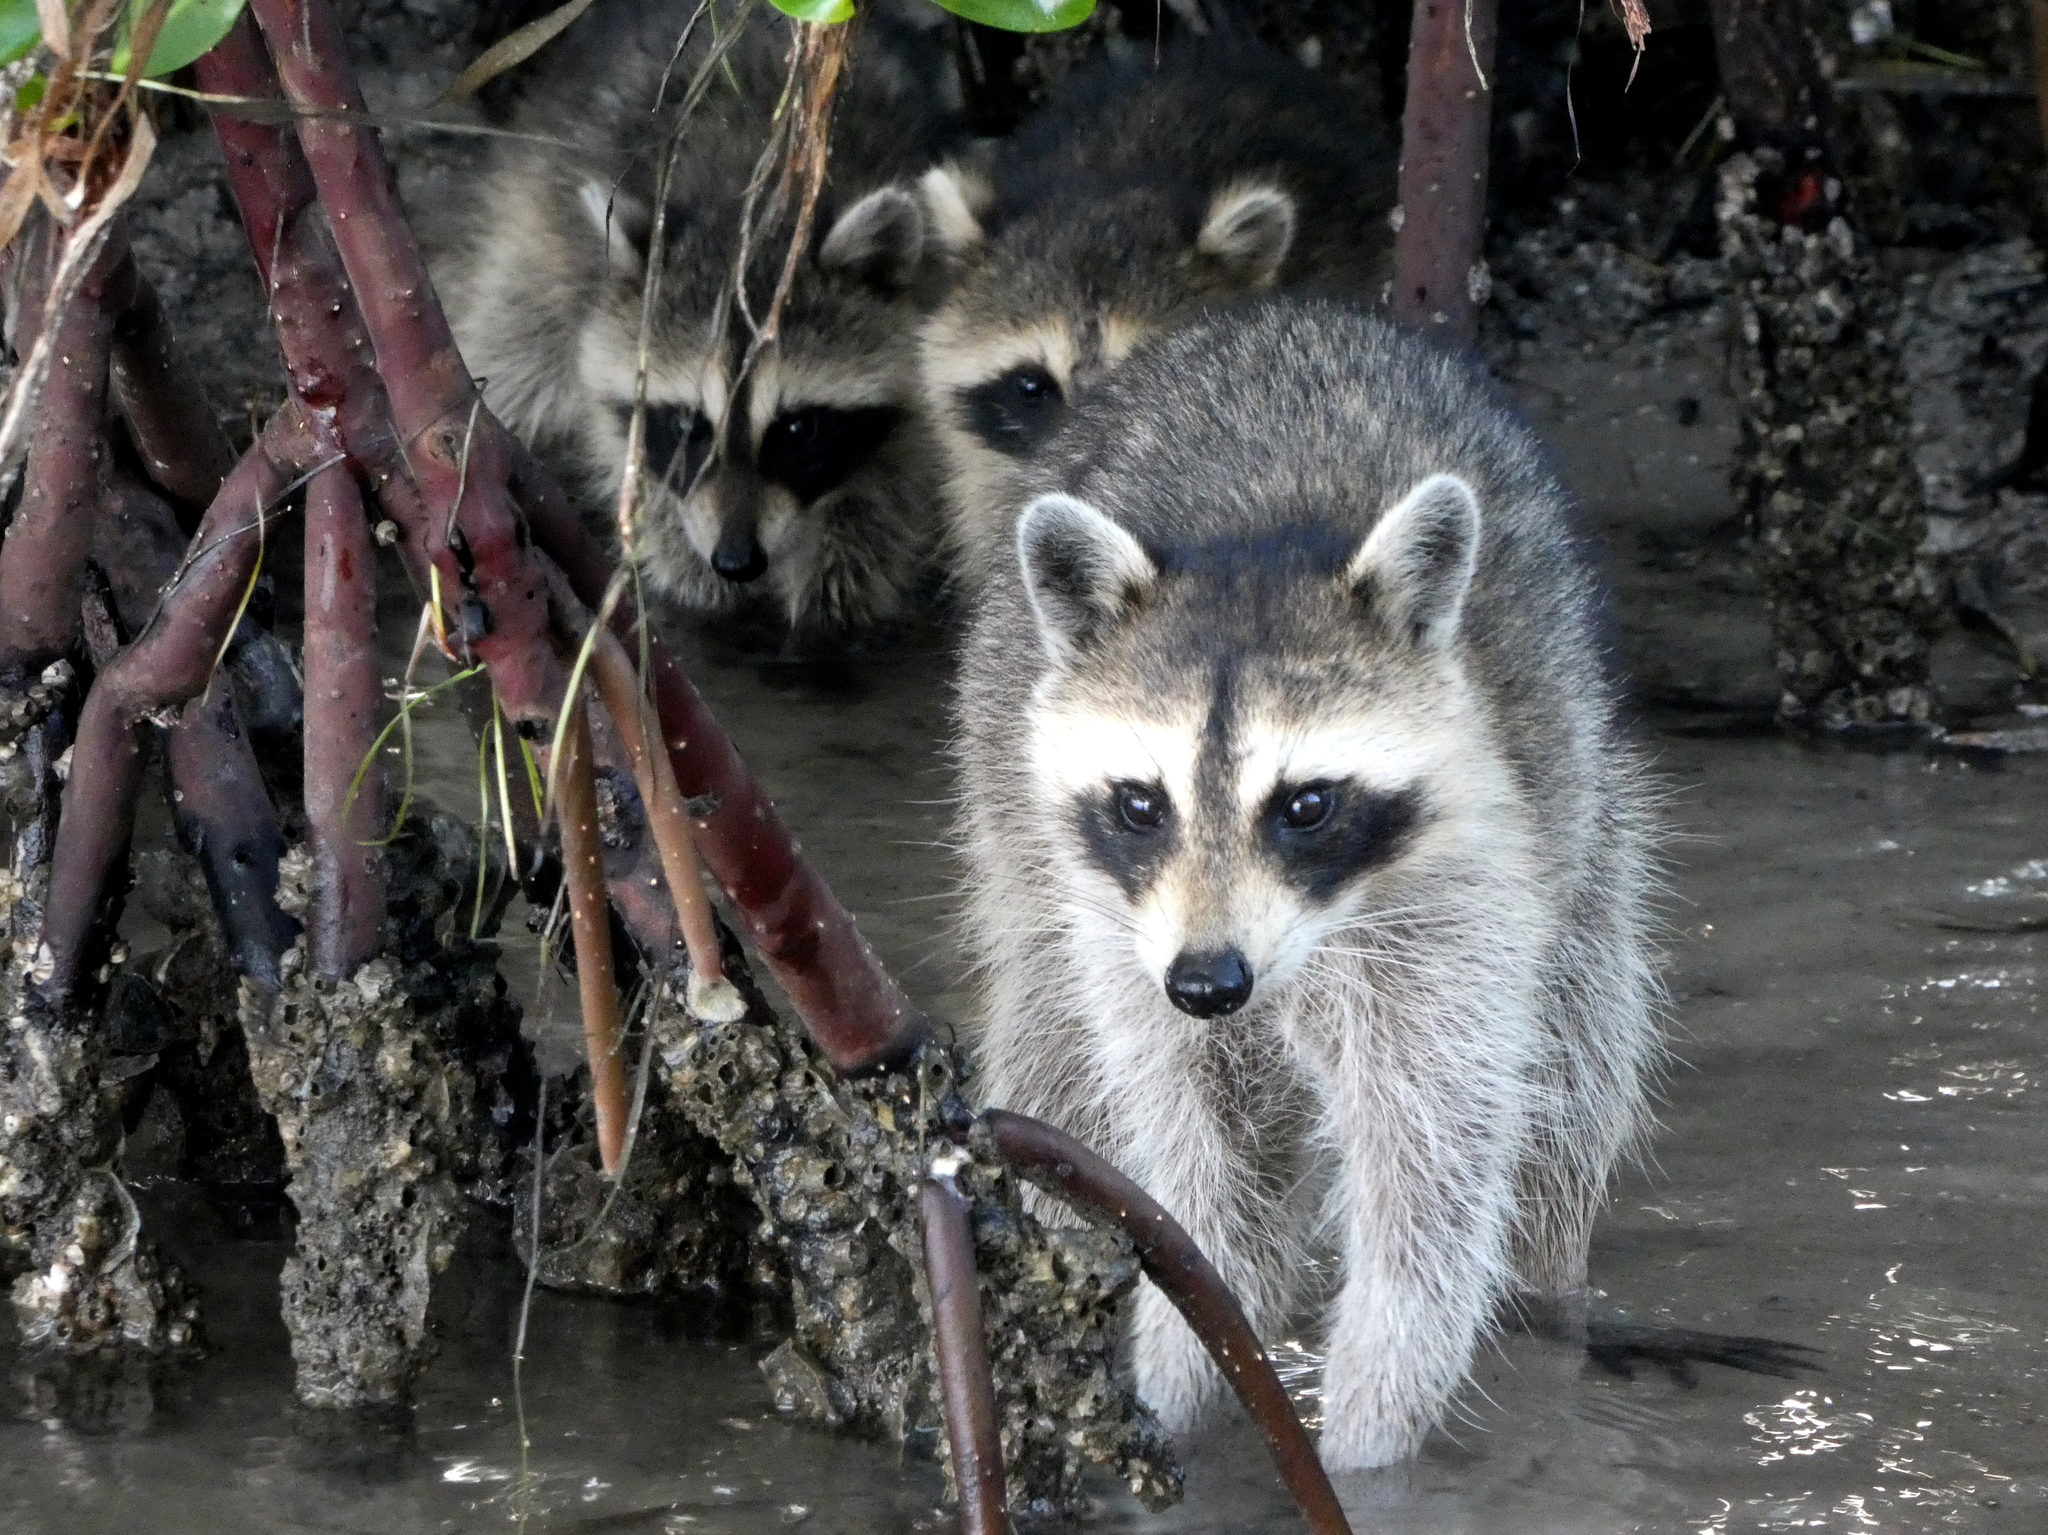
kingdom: Animalia
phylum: Chordata
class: Mammalia
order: Carnivora
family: Procyonidae
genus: Procyon
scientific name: Procyon lotor
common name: Raccoon
